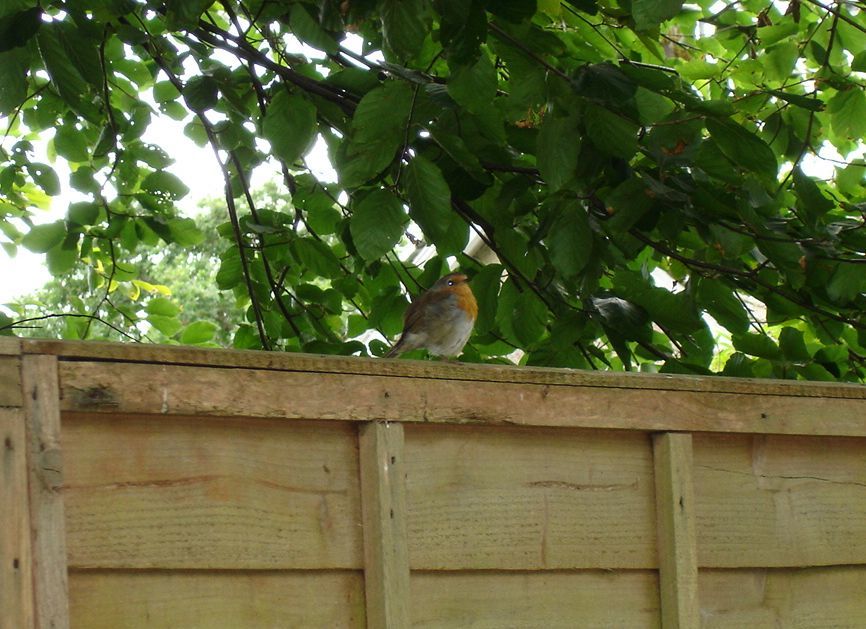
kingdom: Animalia
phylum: Chordata
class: Aves
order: Passeriformes
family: Muscicapidae
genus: Erithacus
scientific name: Erithacus rubecula
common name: European robin
